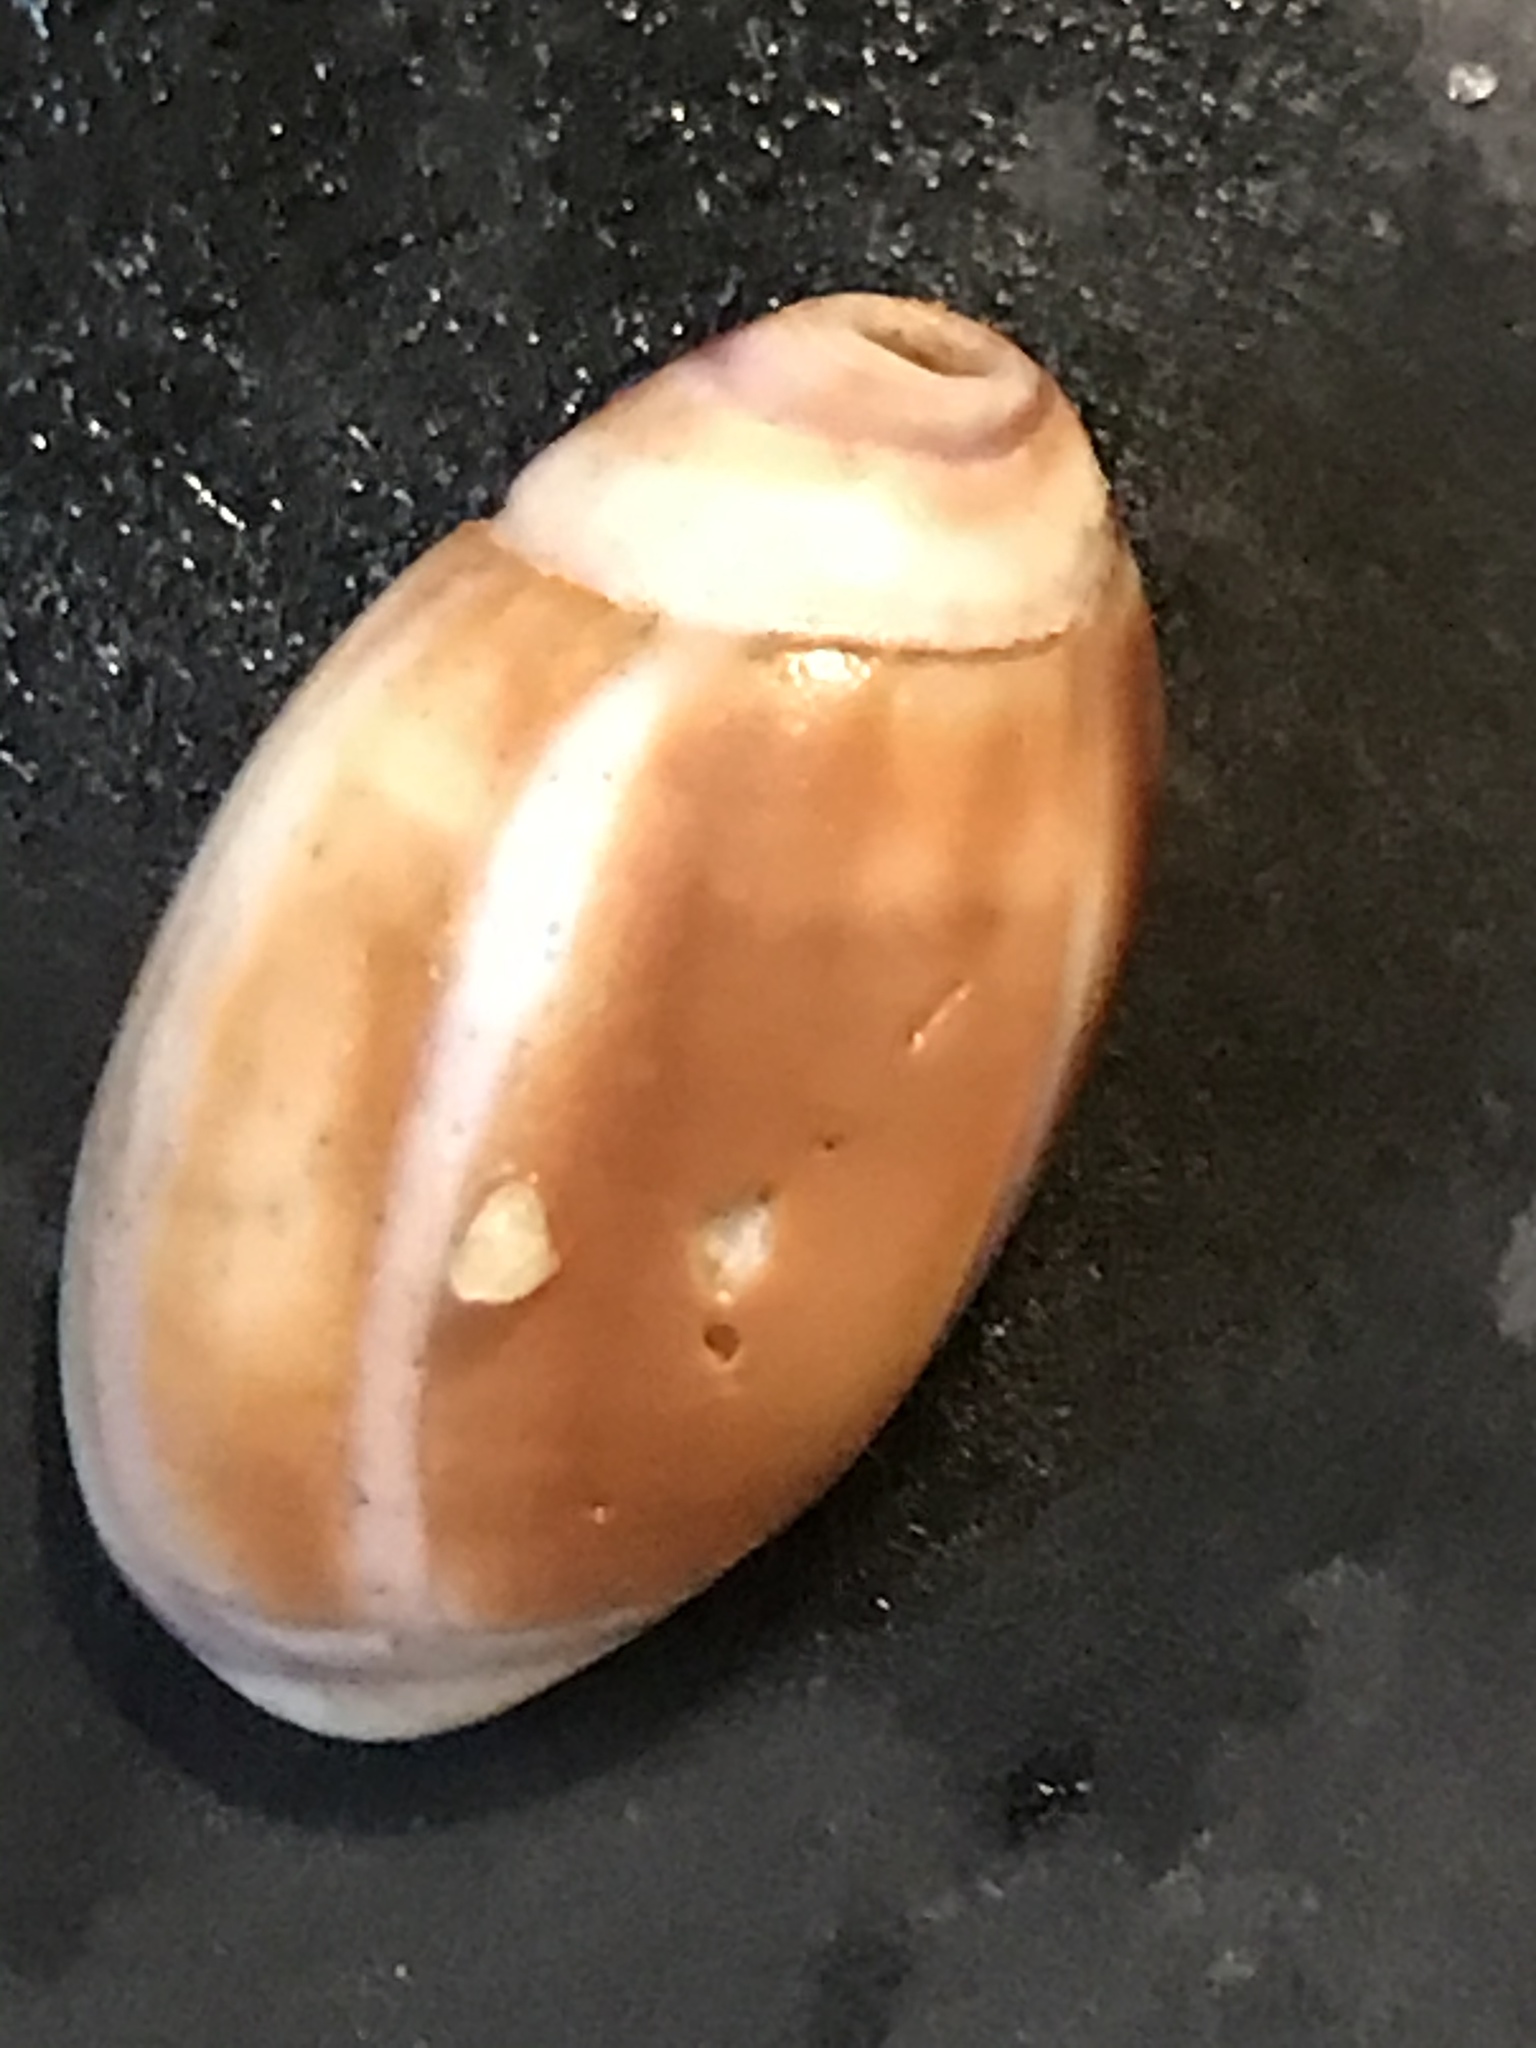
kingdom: Animalia
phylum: Mollusca
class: Gastropoda
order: Neogastropoda
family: Olividae
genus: Callianax
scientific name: Callianax biplicata
